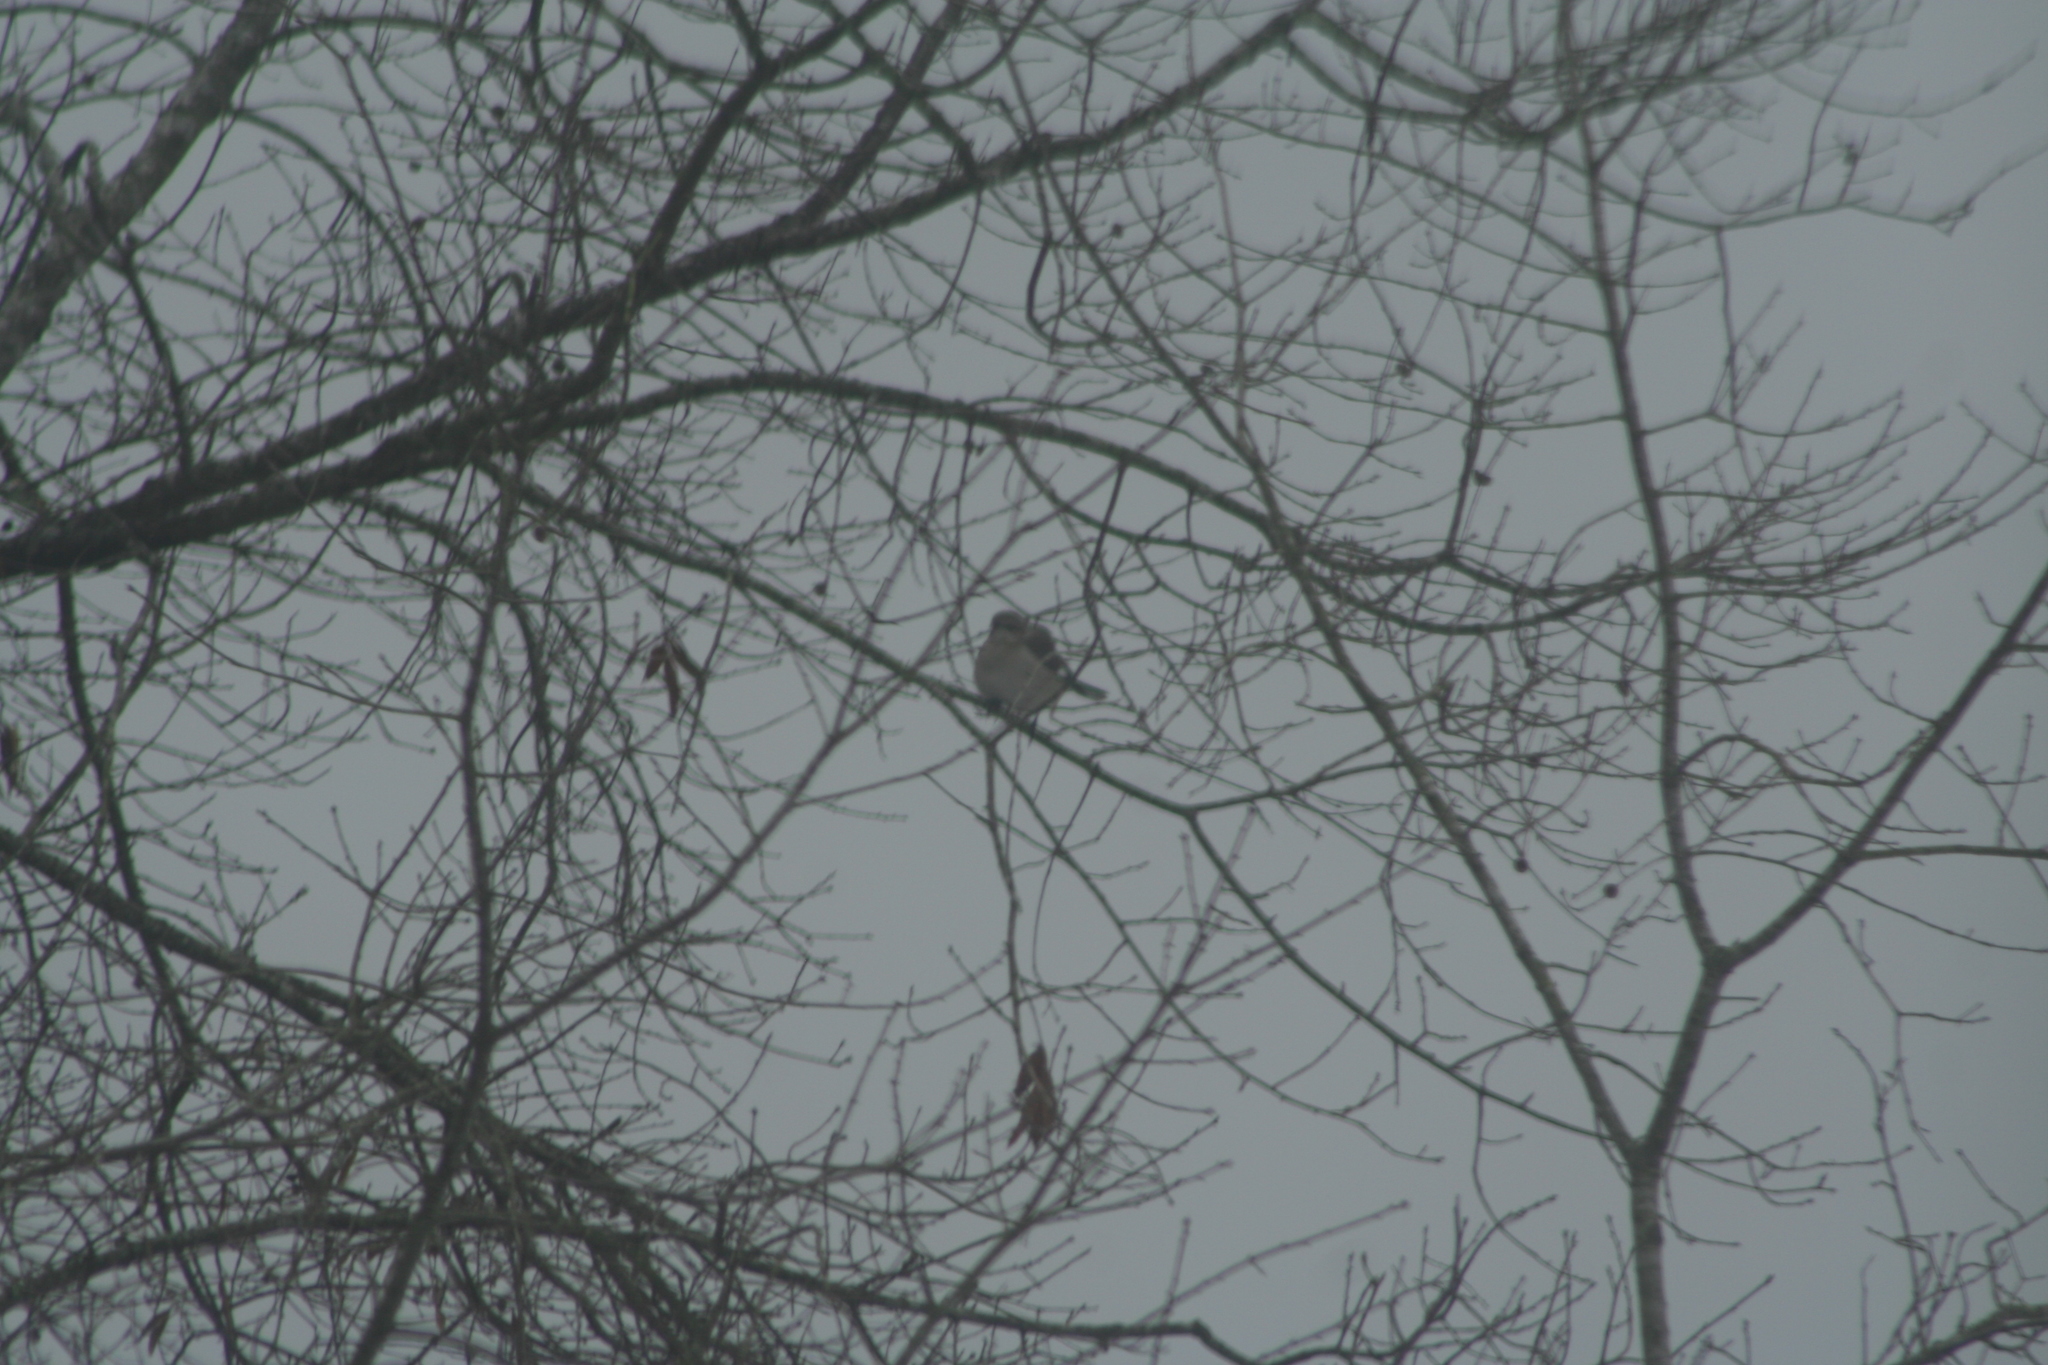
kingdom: Animalia
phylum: Chordata
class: Aves
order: Passeriformes
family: Mimidae
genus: Mimus
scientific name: Mimus polyglottos
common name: Northern mockingbird
